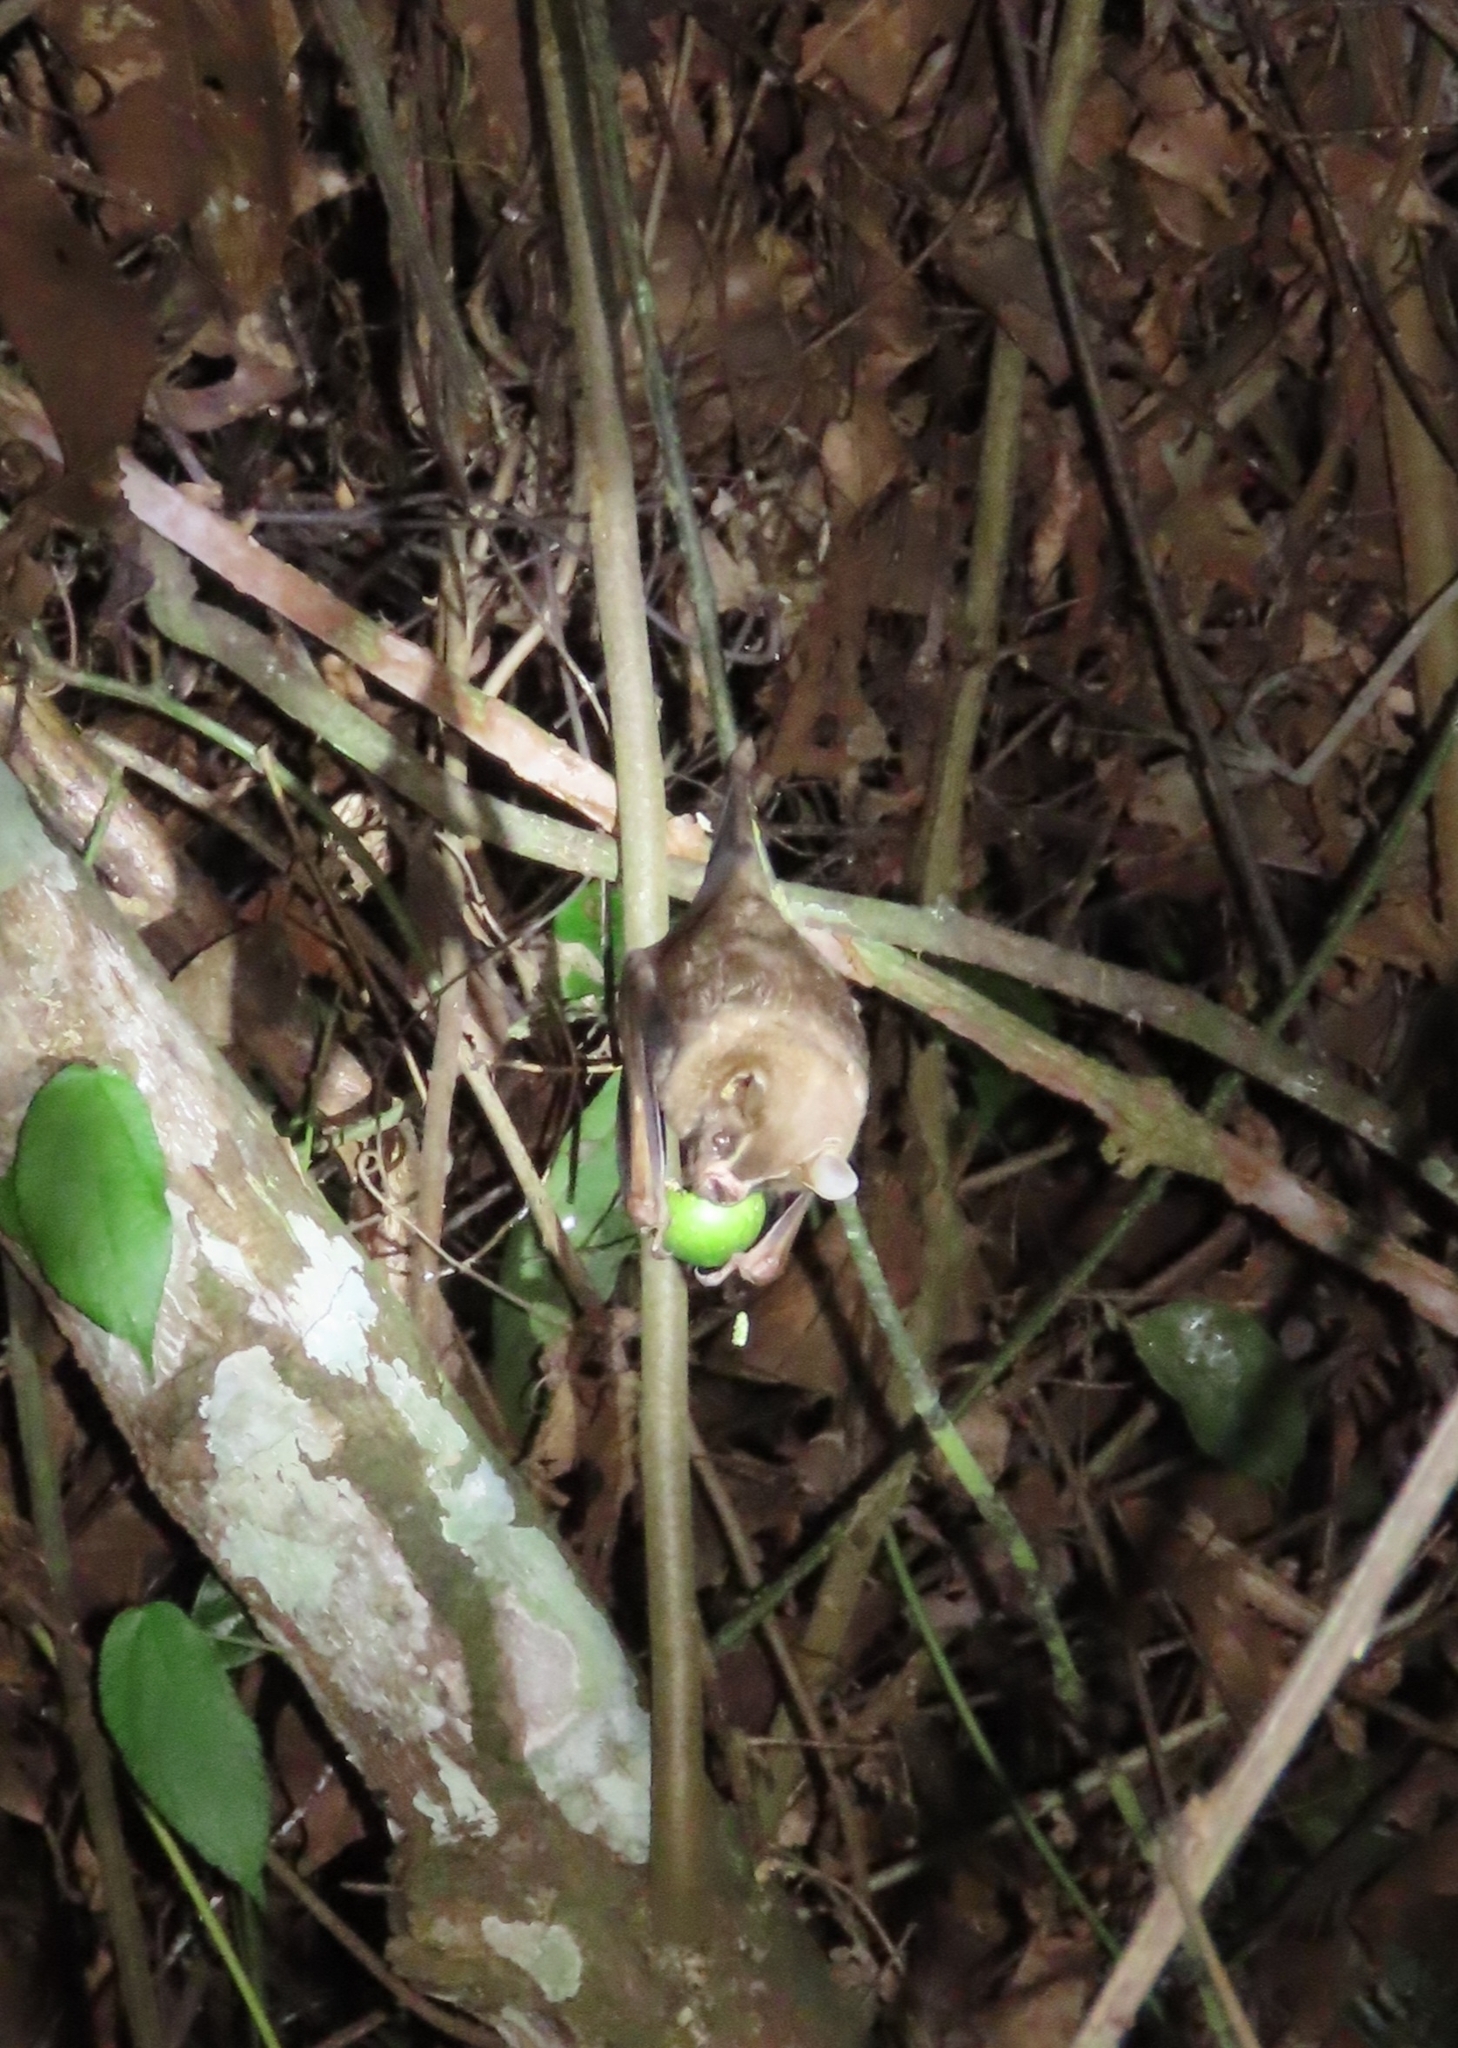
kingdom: Animalia
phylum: Chordata
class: Mammalia
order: Chiroptera
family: Phyllostomidae
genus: Artibeus
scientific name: Artibeus lituratus
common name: Great fruit-eating bat
